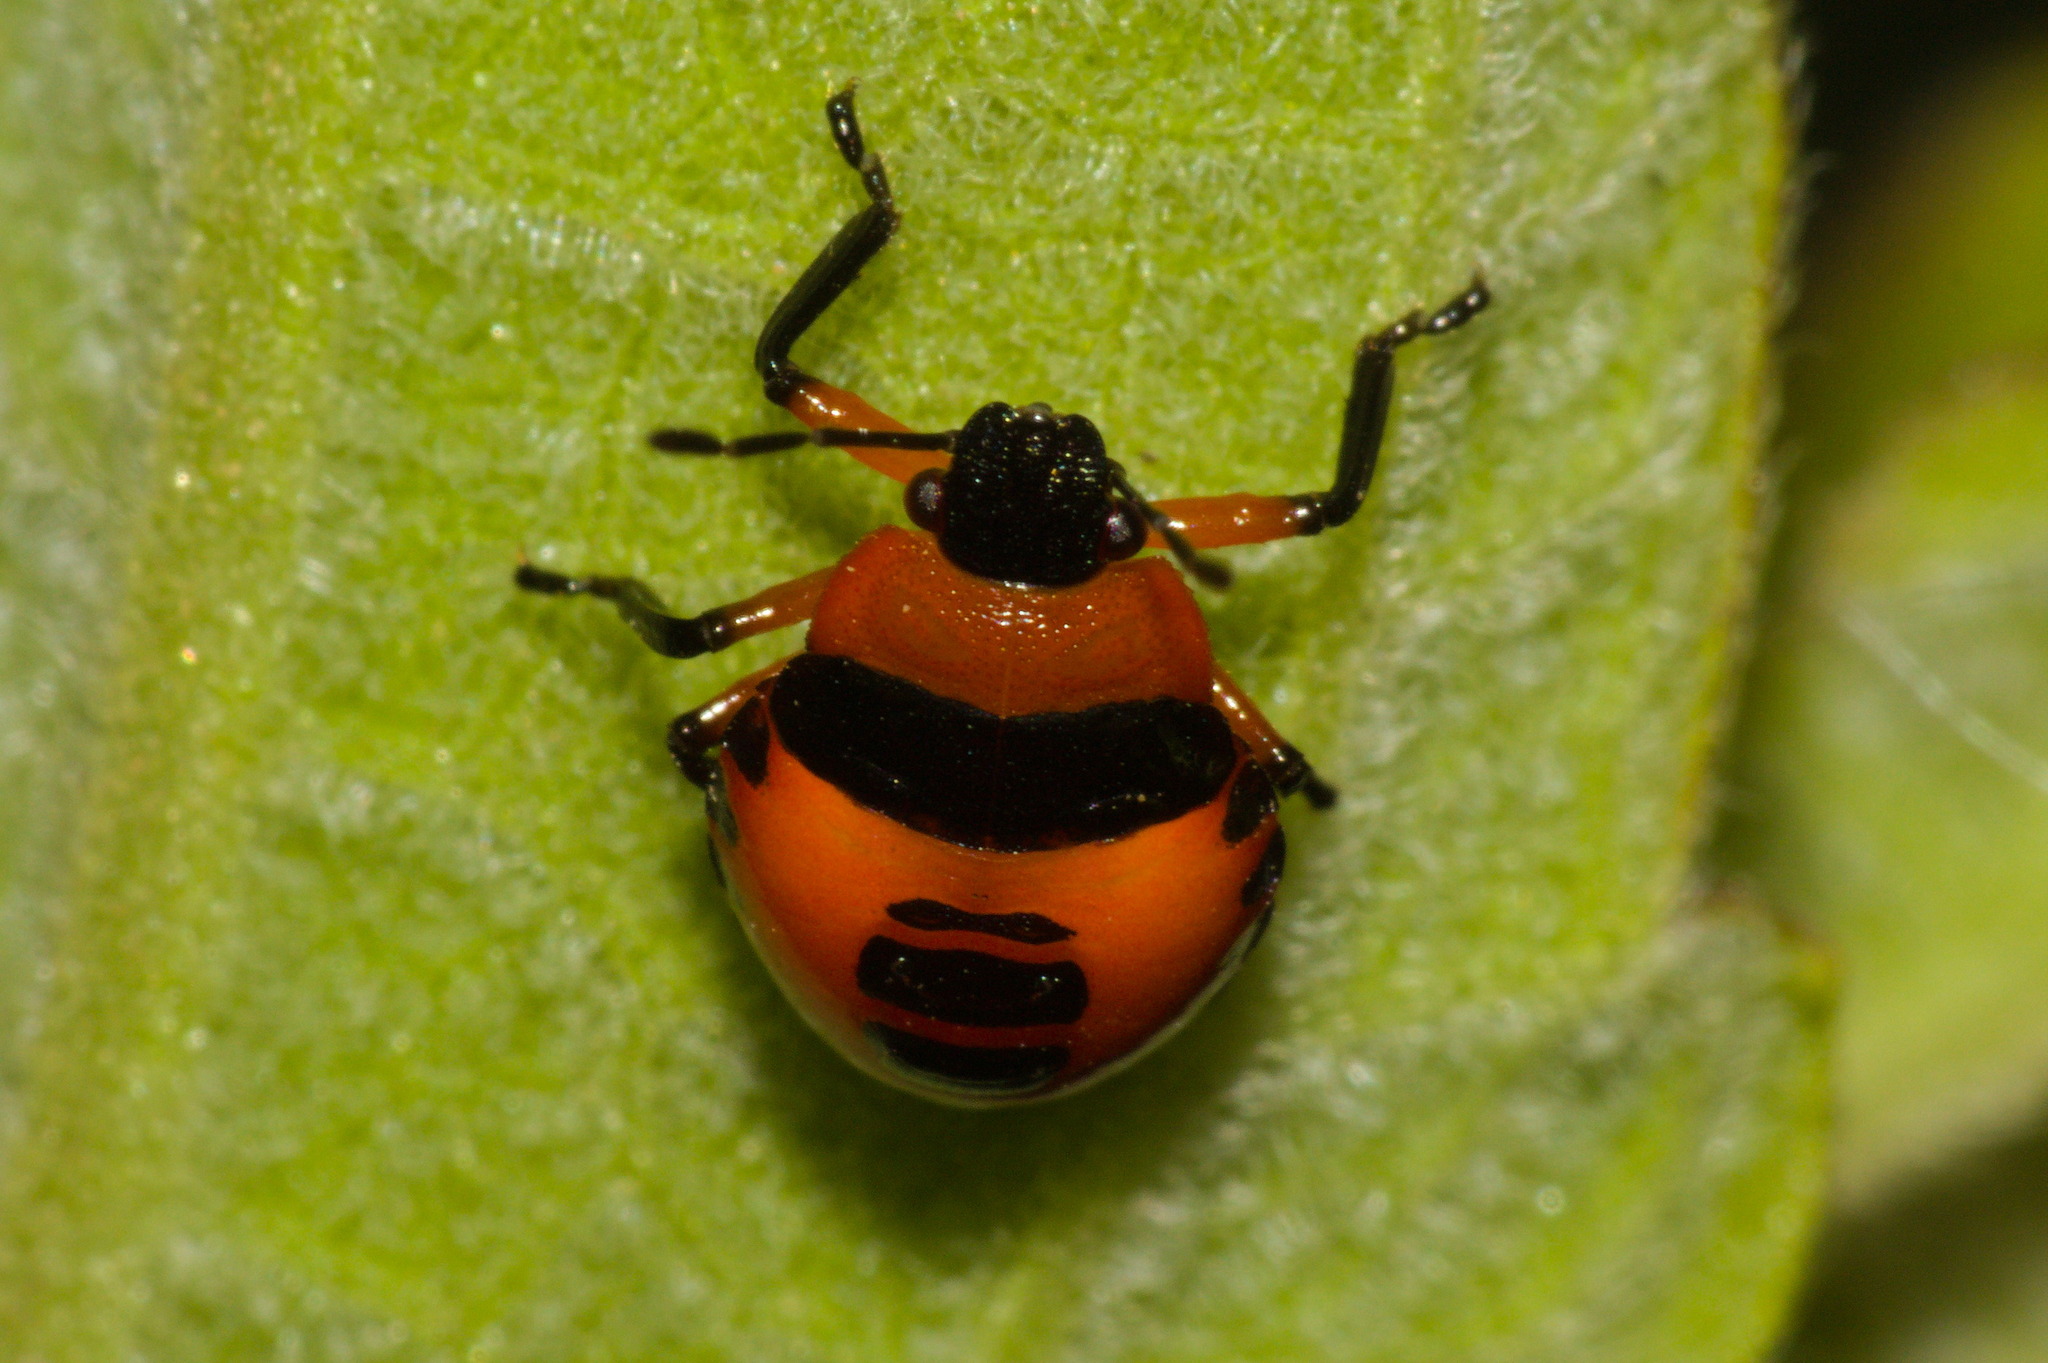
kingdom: Animalia
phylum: Arthropoda
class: Insecta
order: Hemiptera
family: Pentatomidae
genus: Supputius
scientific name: Supputius
